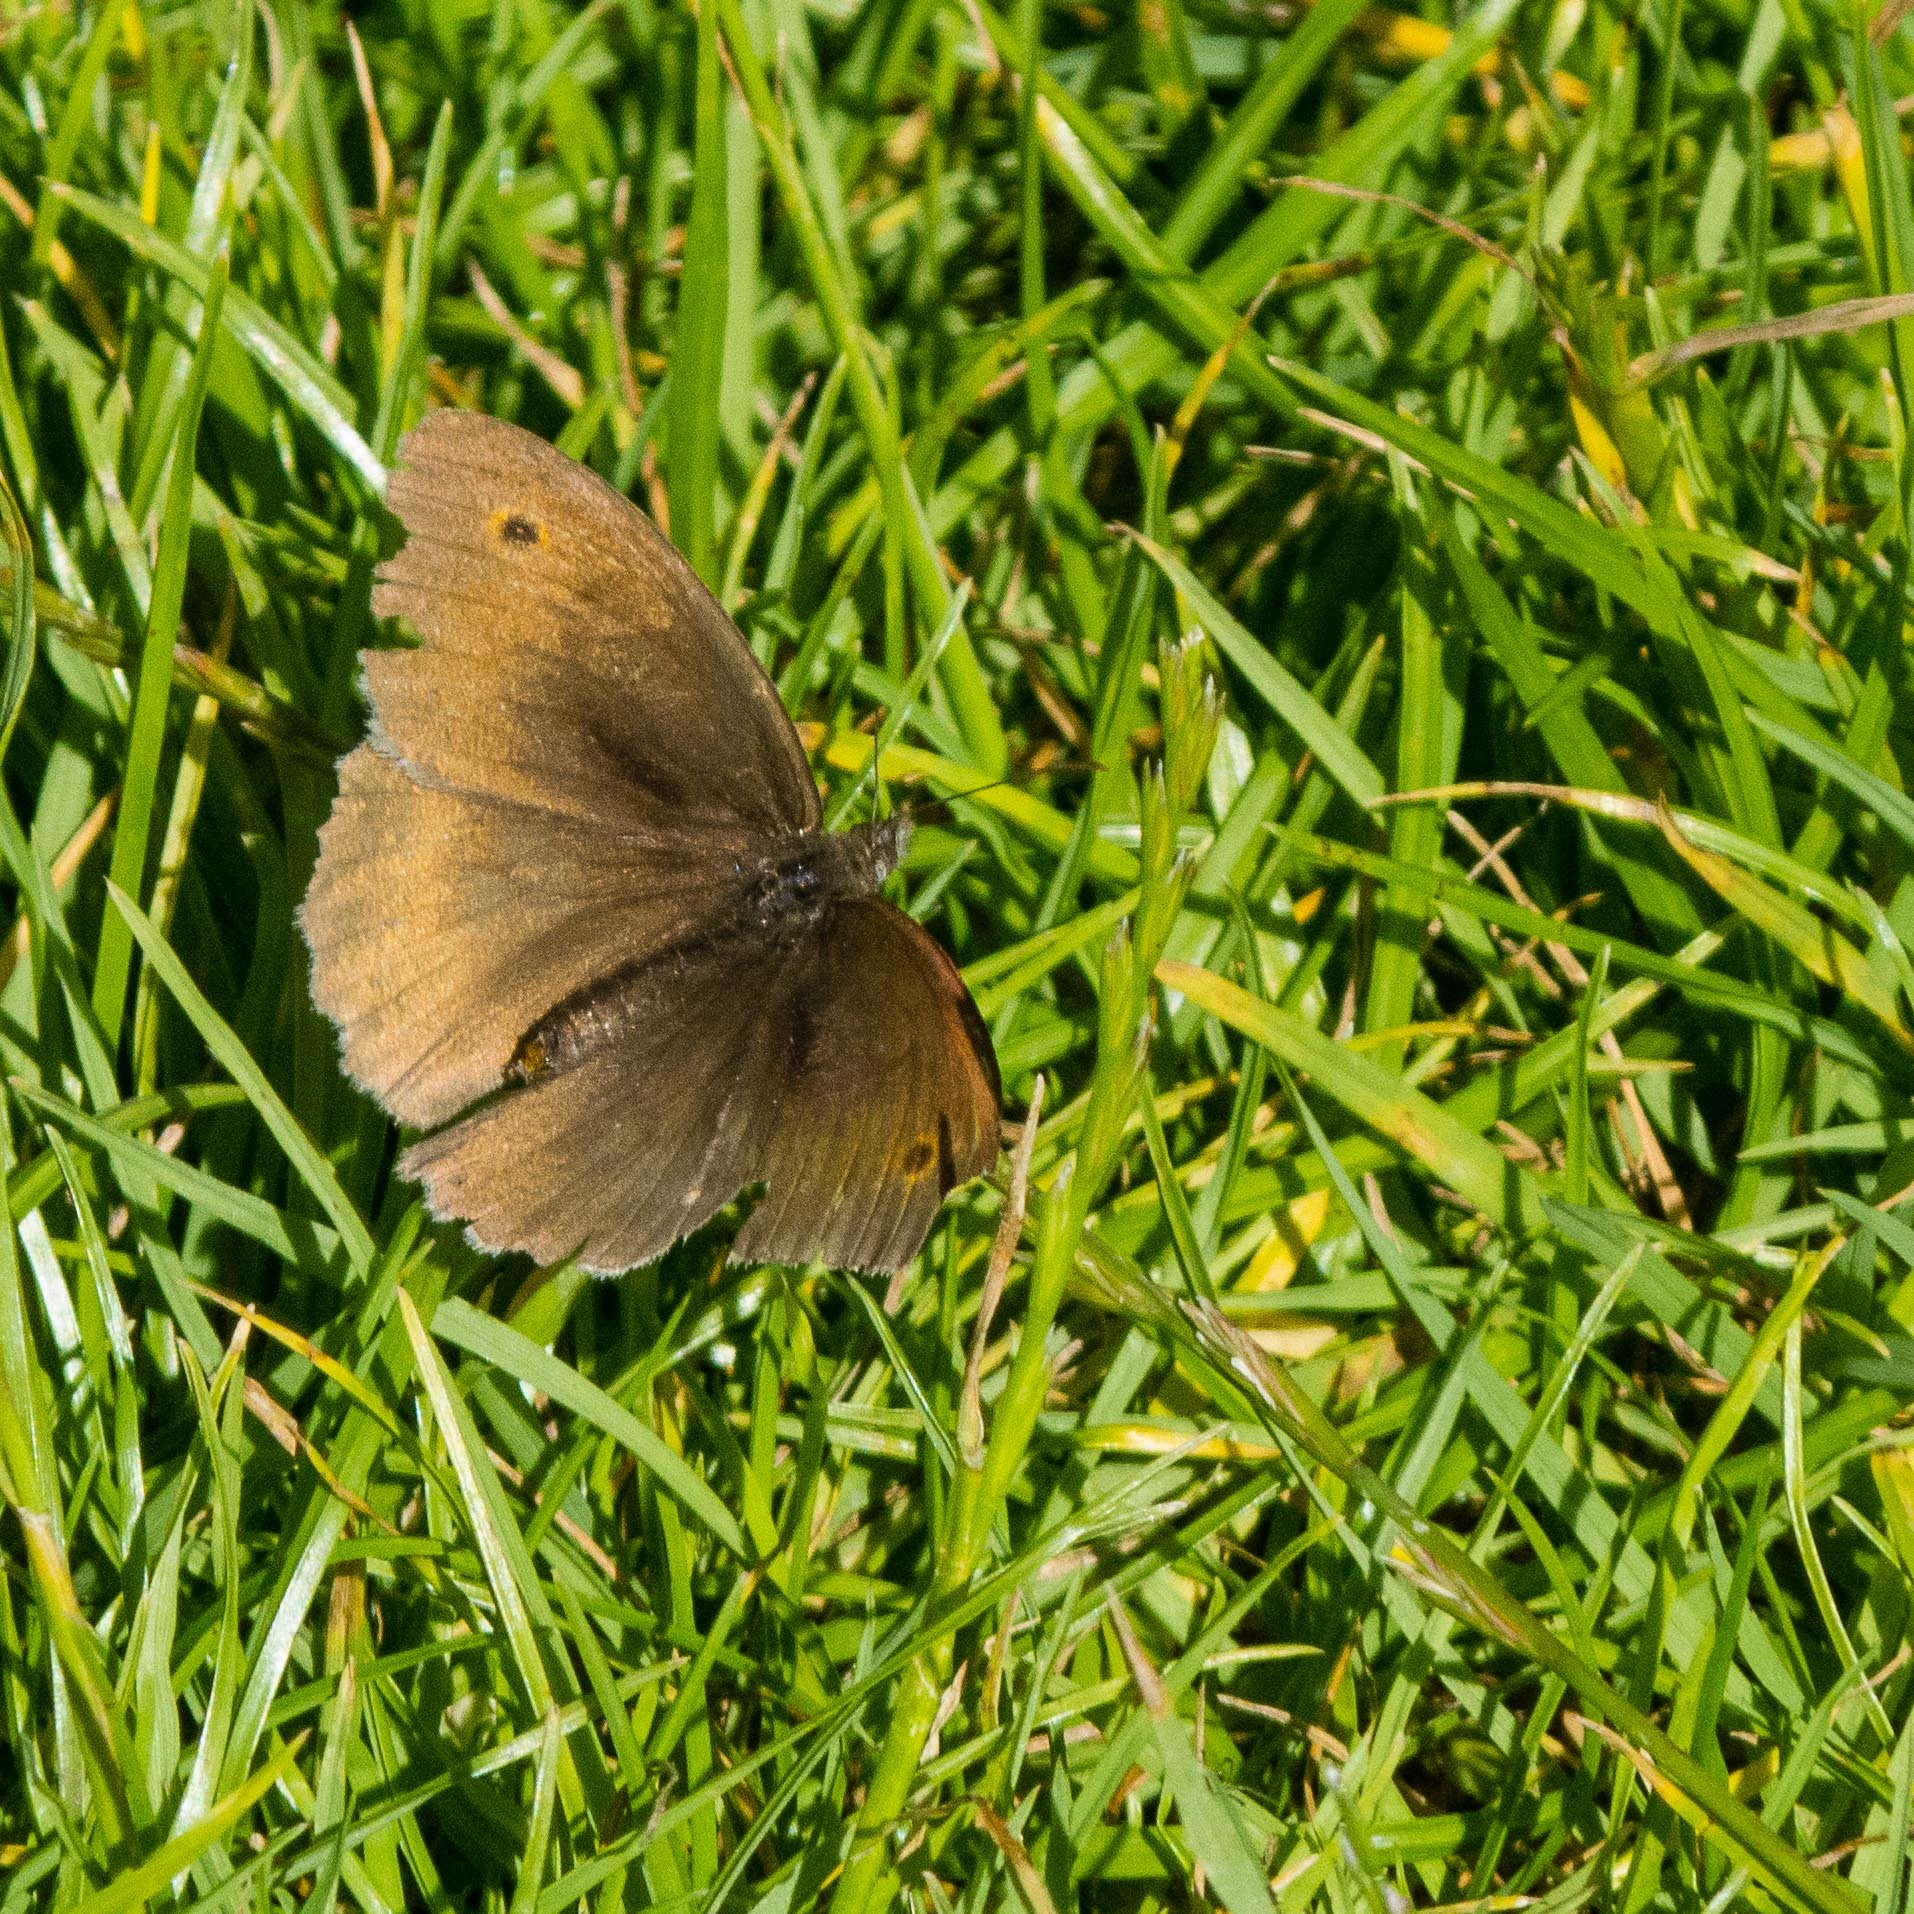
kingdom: Animalia
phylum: Arthropoda
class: Insecta
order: Lepidoptera
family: Nymphalidae
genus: Maniola
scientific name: Maniola jurtina
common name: Meadow brown
